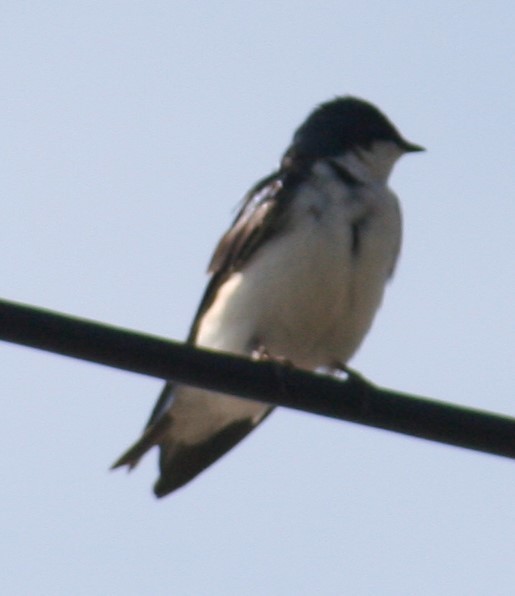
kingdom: Animalia
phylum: Chordata
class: Aves
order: Passeriformes
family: Hirundinidae
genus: Tachycineta
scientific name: Tachycineta bicolor
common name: Tree swallow
